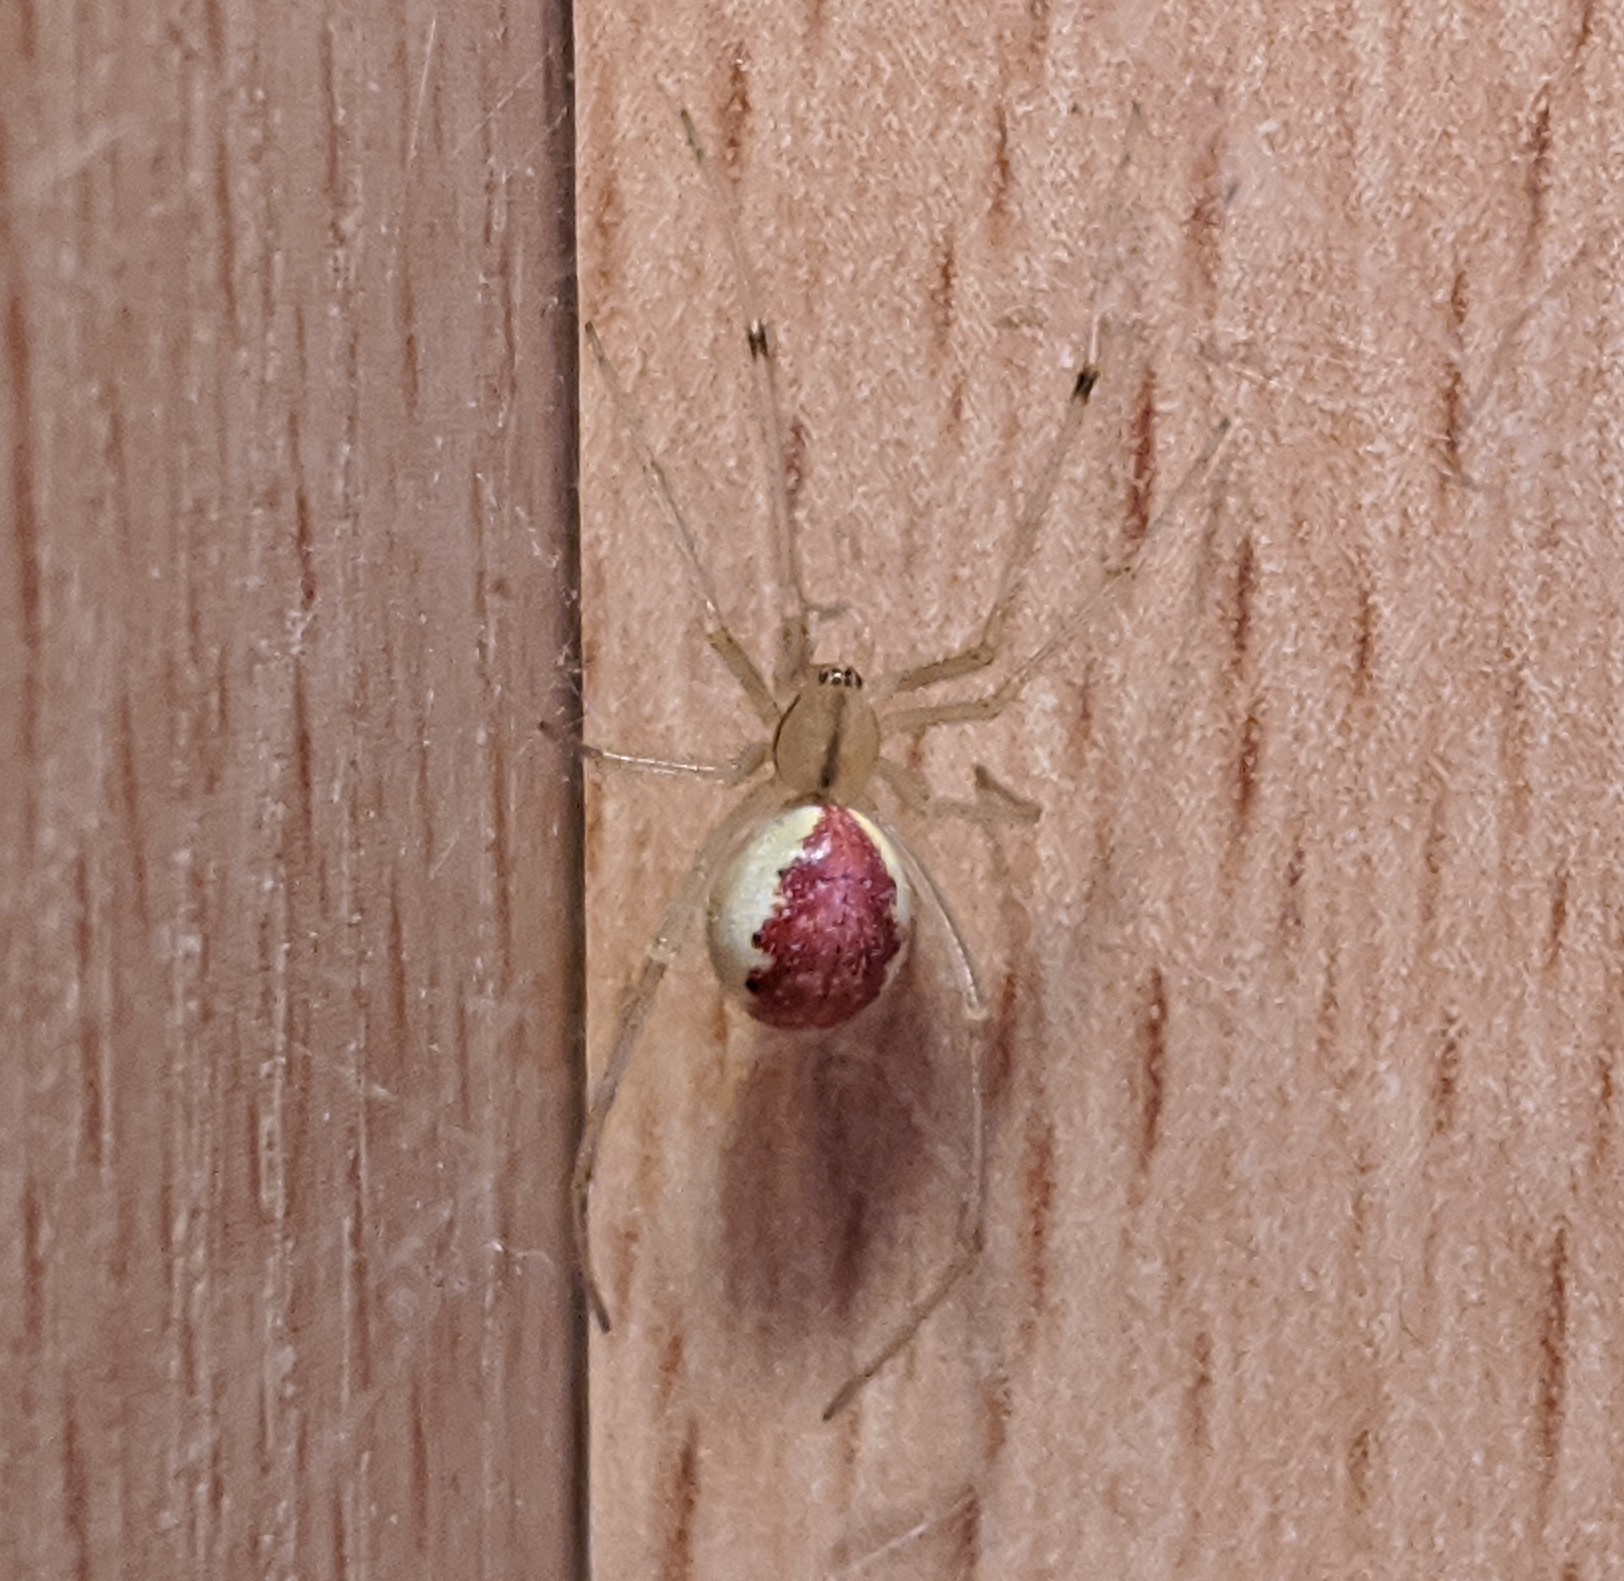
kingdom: Animalia
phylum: Arthropoda
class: Arachnida
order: Araneae
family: Theridiidae
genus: Enoplognatha
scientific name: Enoplognatha
